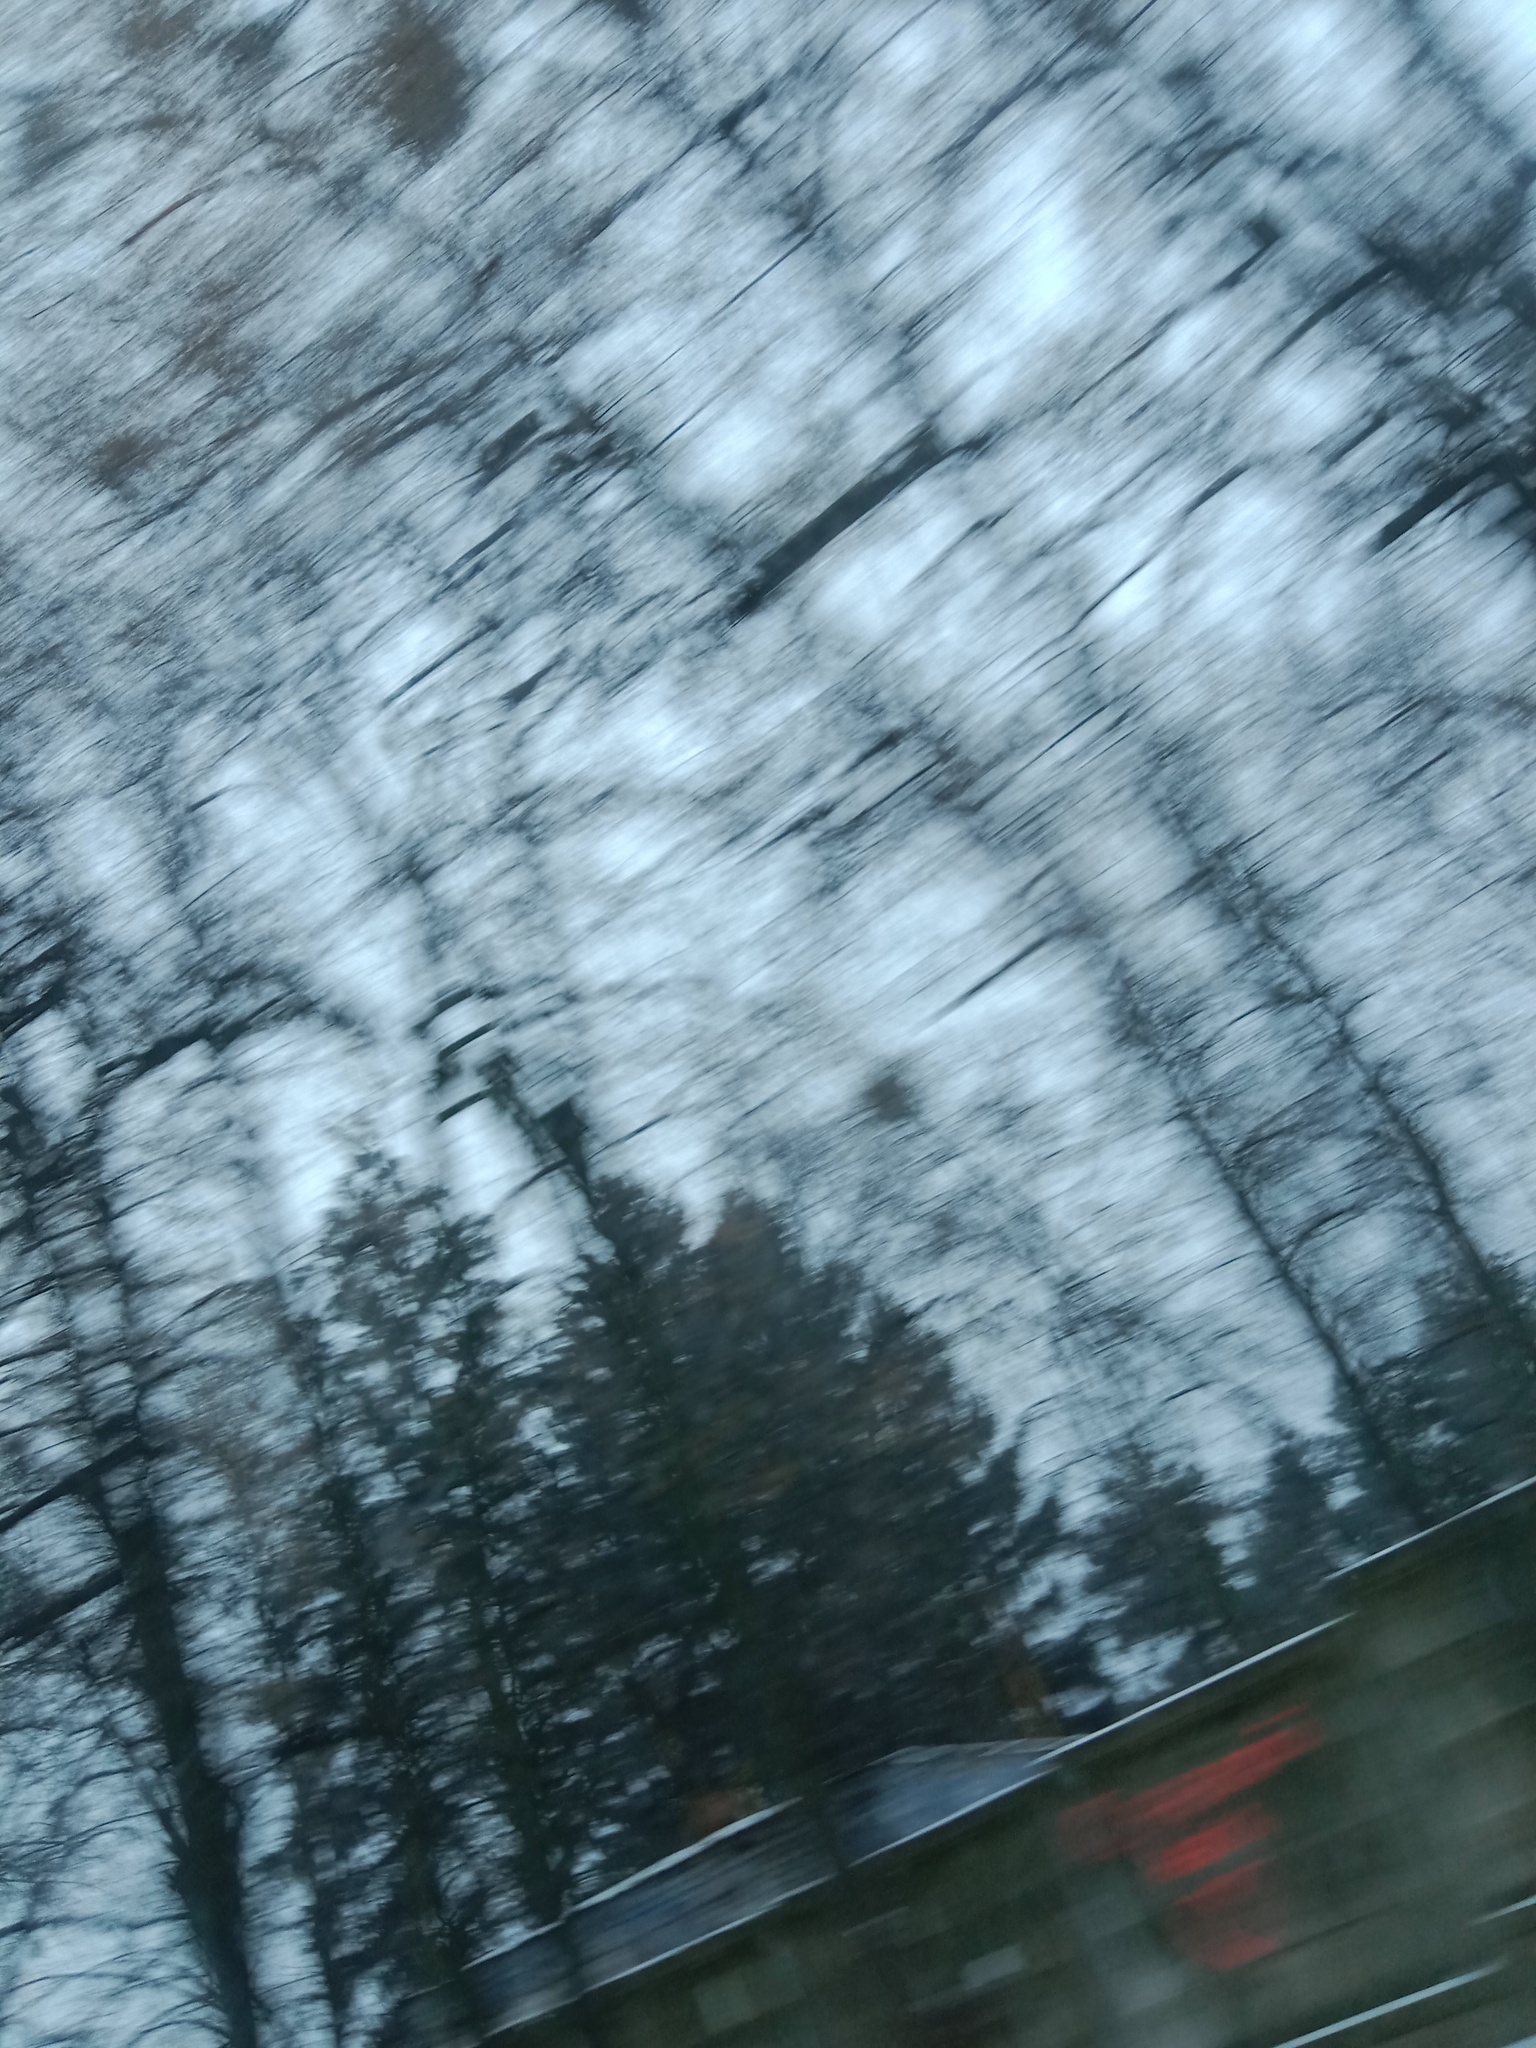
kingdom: Plantae
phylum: Tracheophyta
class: Magnoliopsida
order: Santalales
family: Viscaceae
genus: Viscum
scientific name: Viscum album
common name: Mistletoe
